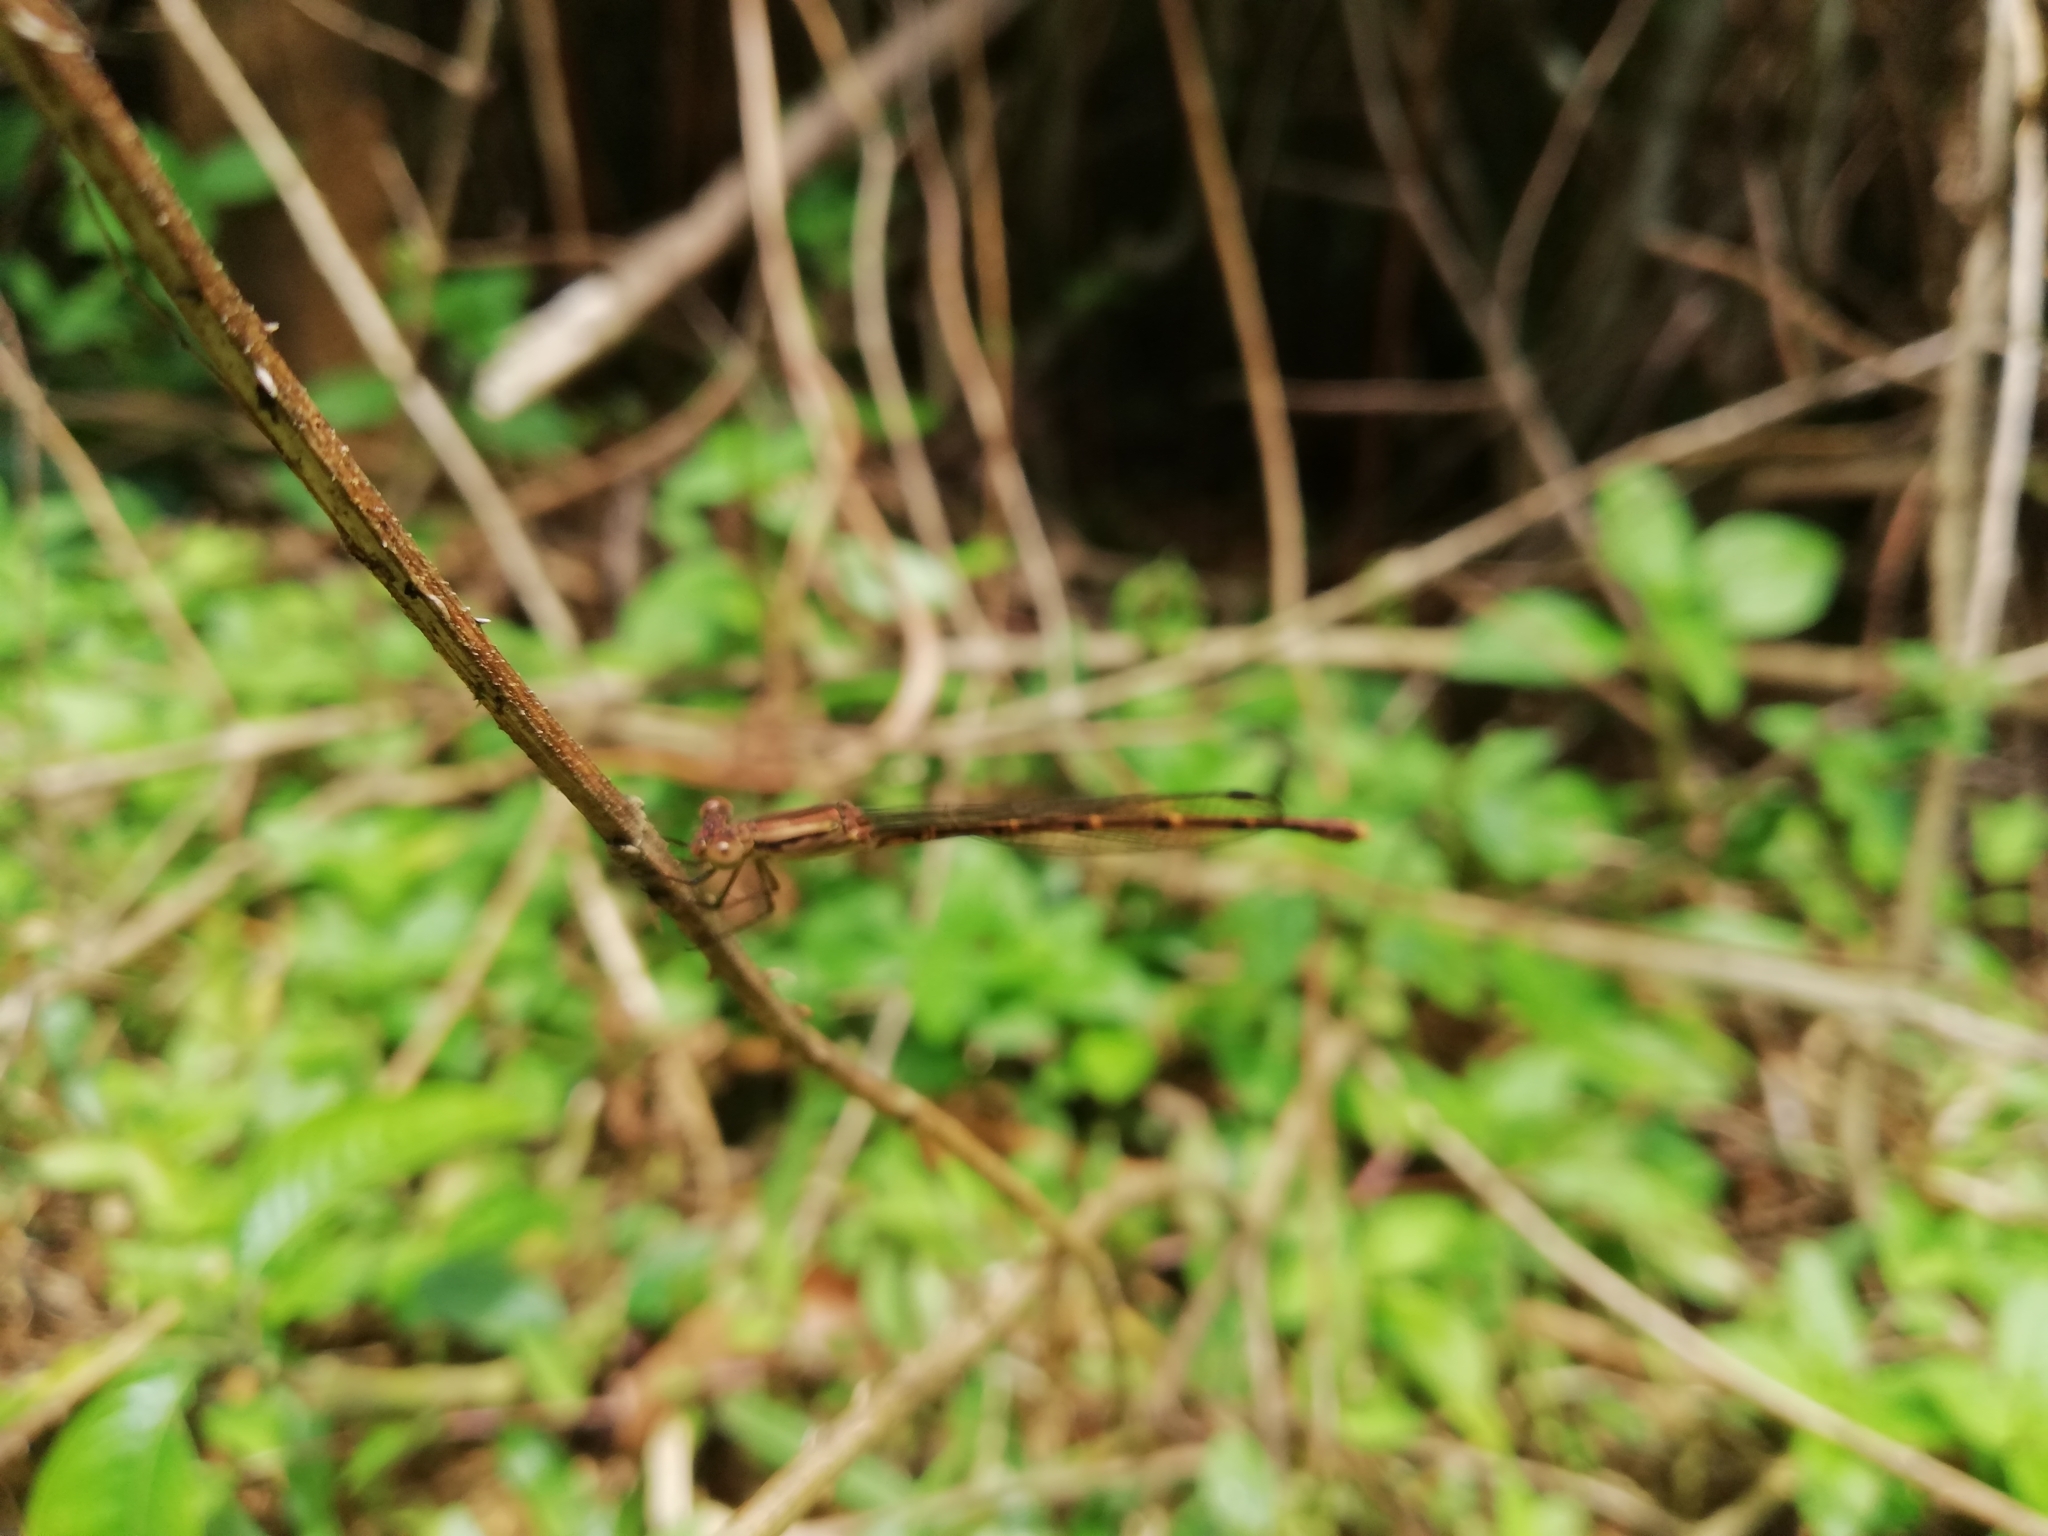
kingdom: Animalia
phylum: Arthropoda
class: Insecta
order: Odonata
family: Lestidae
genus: Indolestes
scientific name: Indolestes gracilis
